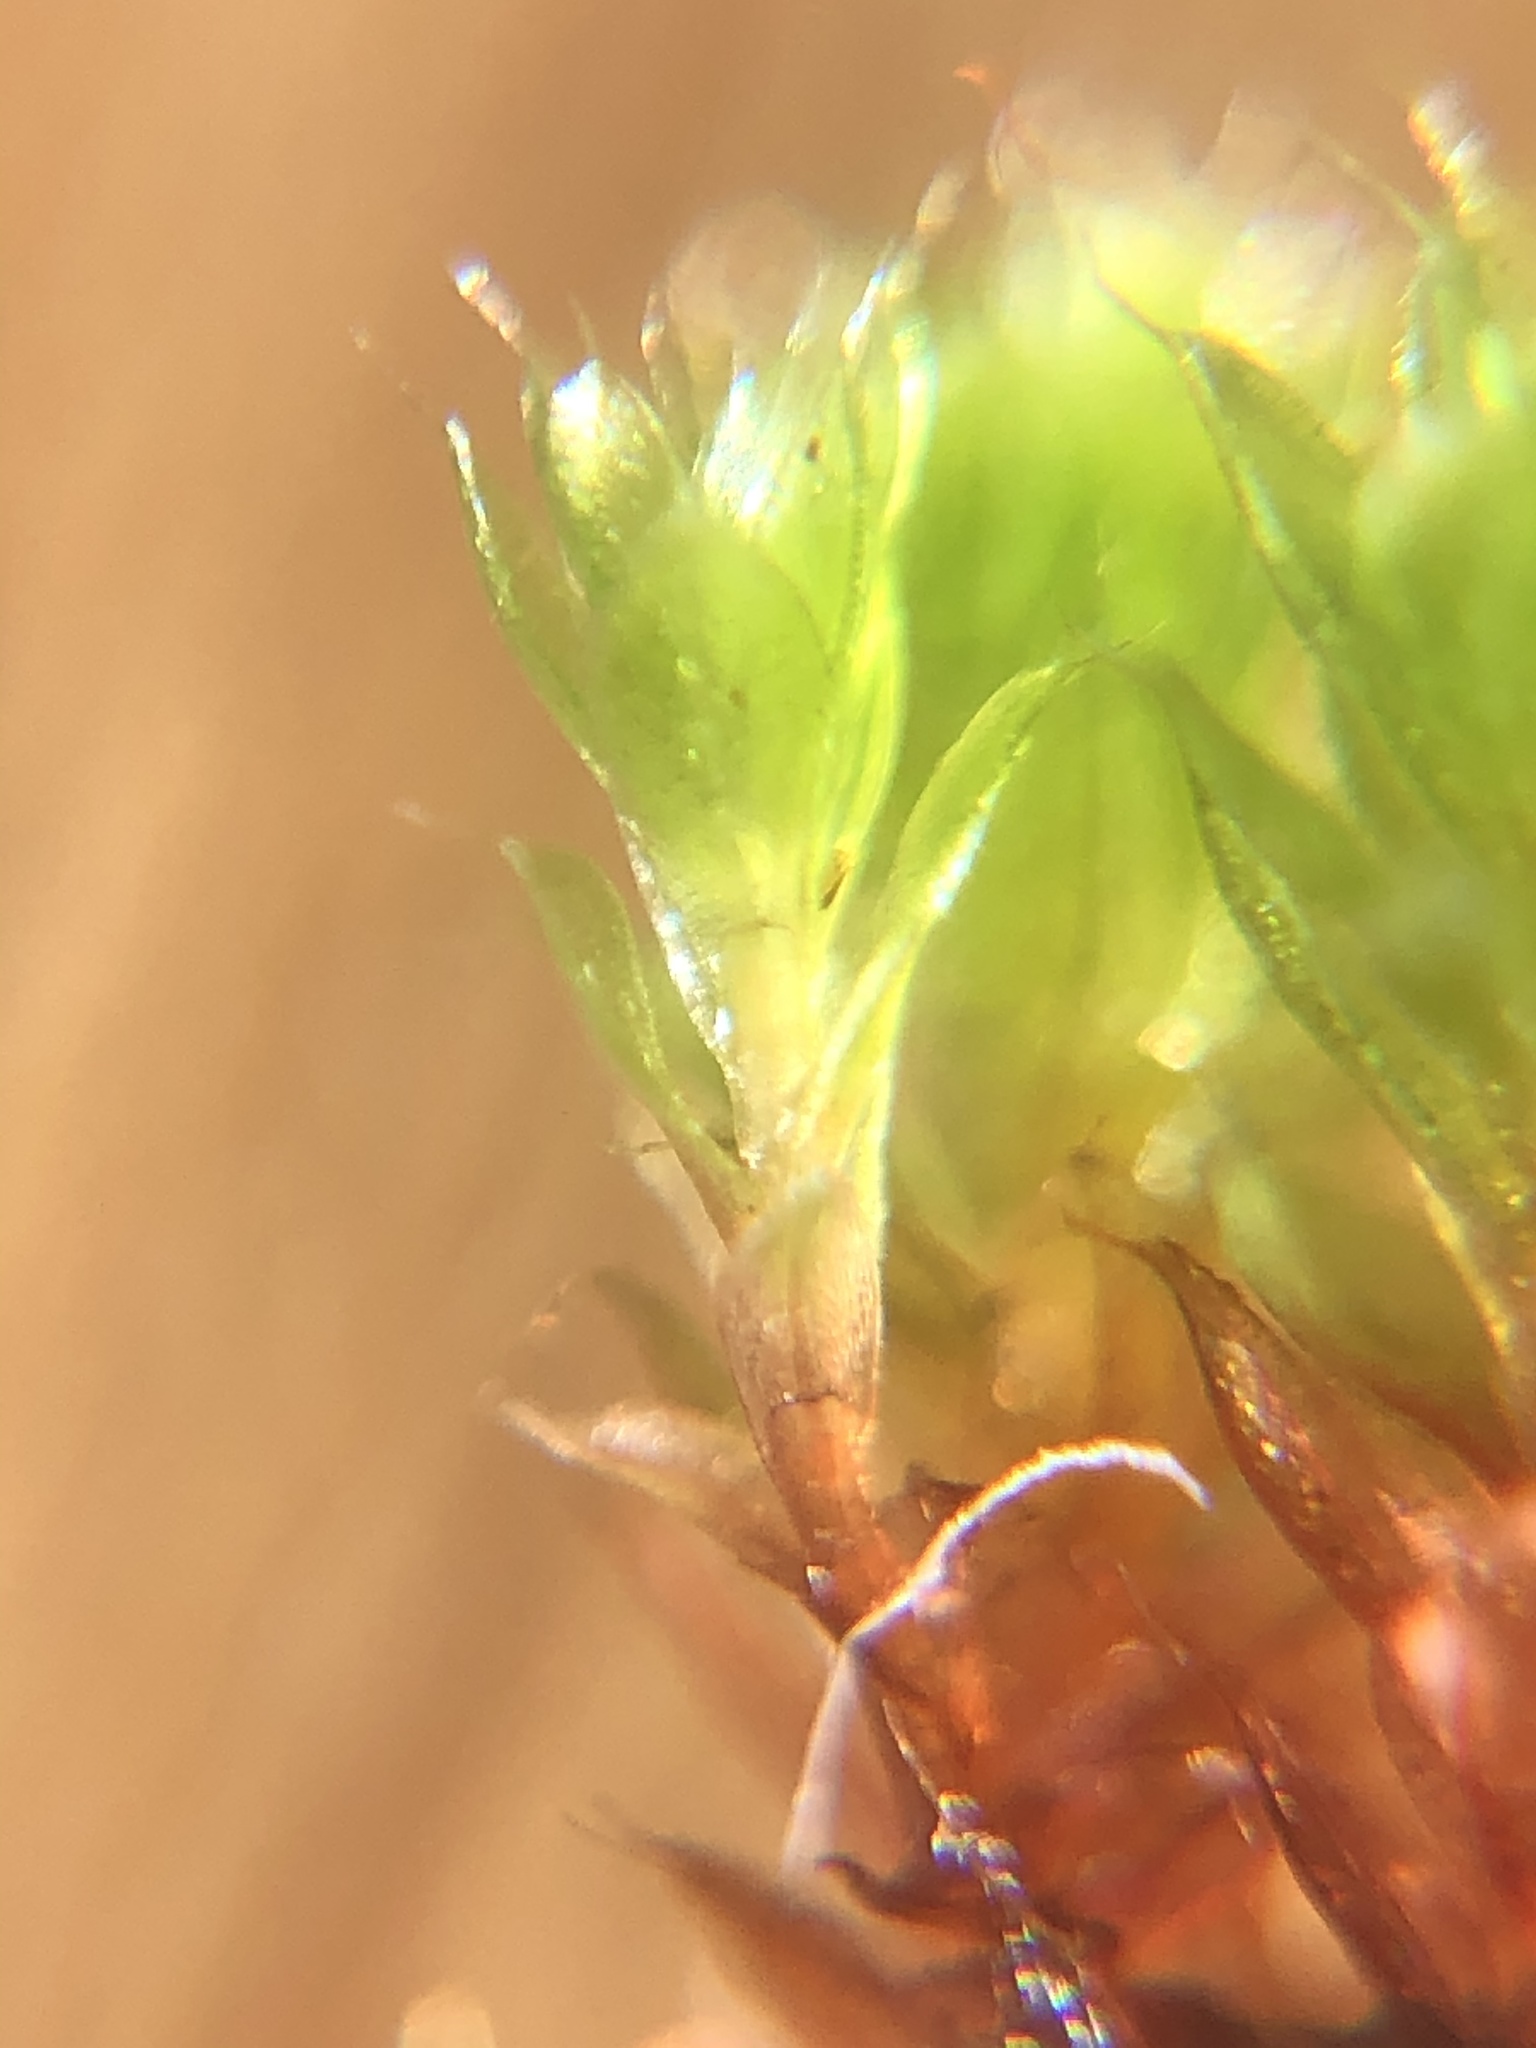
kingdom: Plantae
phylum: Bryophyta
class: Bryopsida
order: Bryales
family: Bryaceae
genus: Rosulabryum
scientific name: Rosulabryum capillare
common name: Capillary thread-moss
